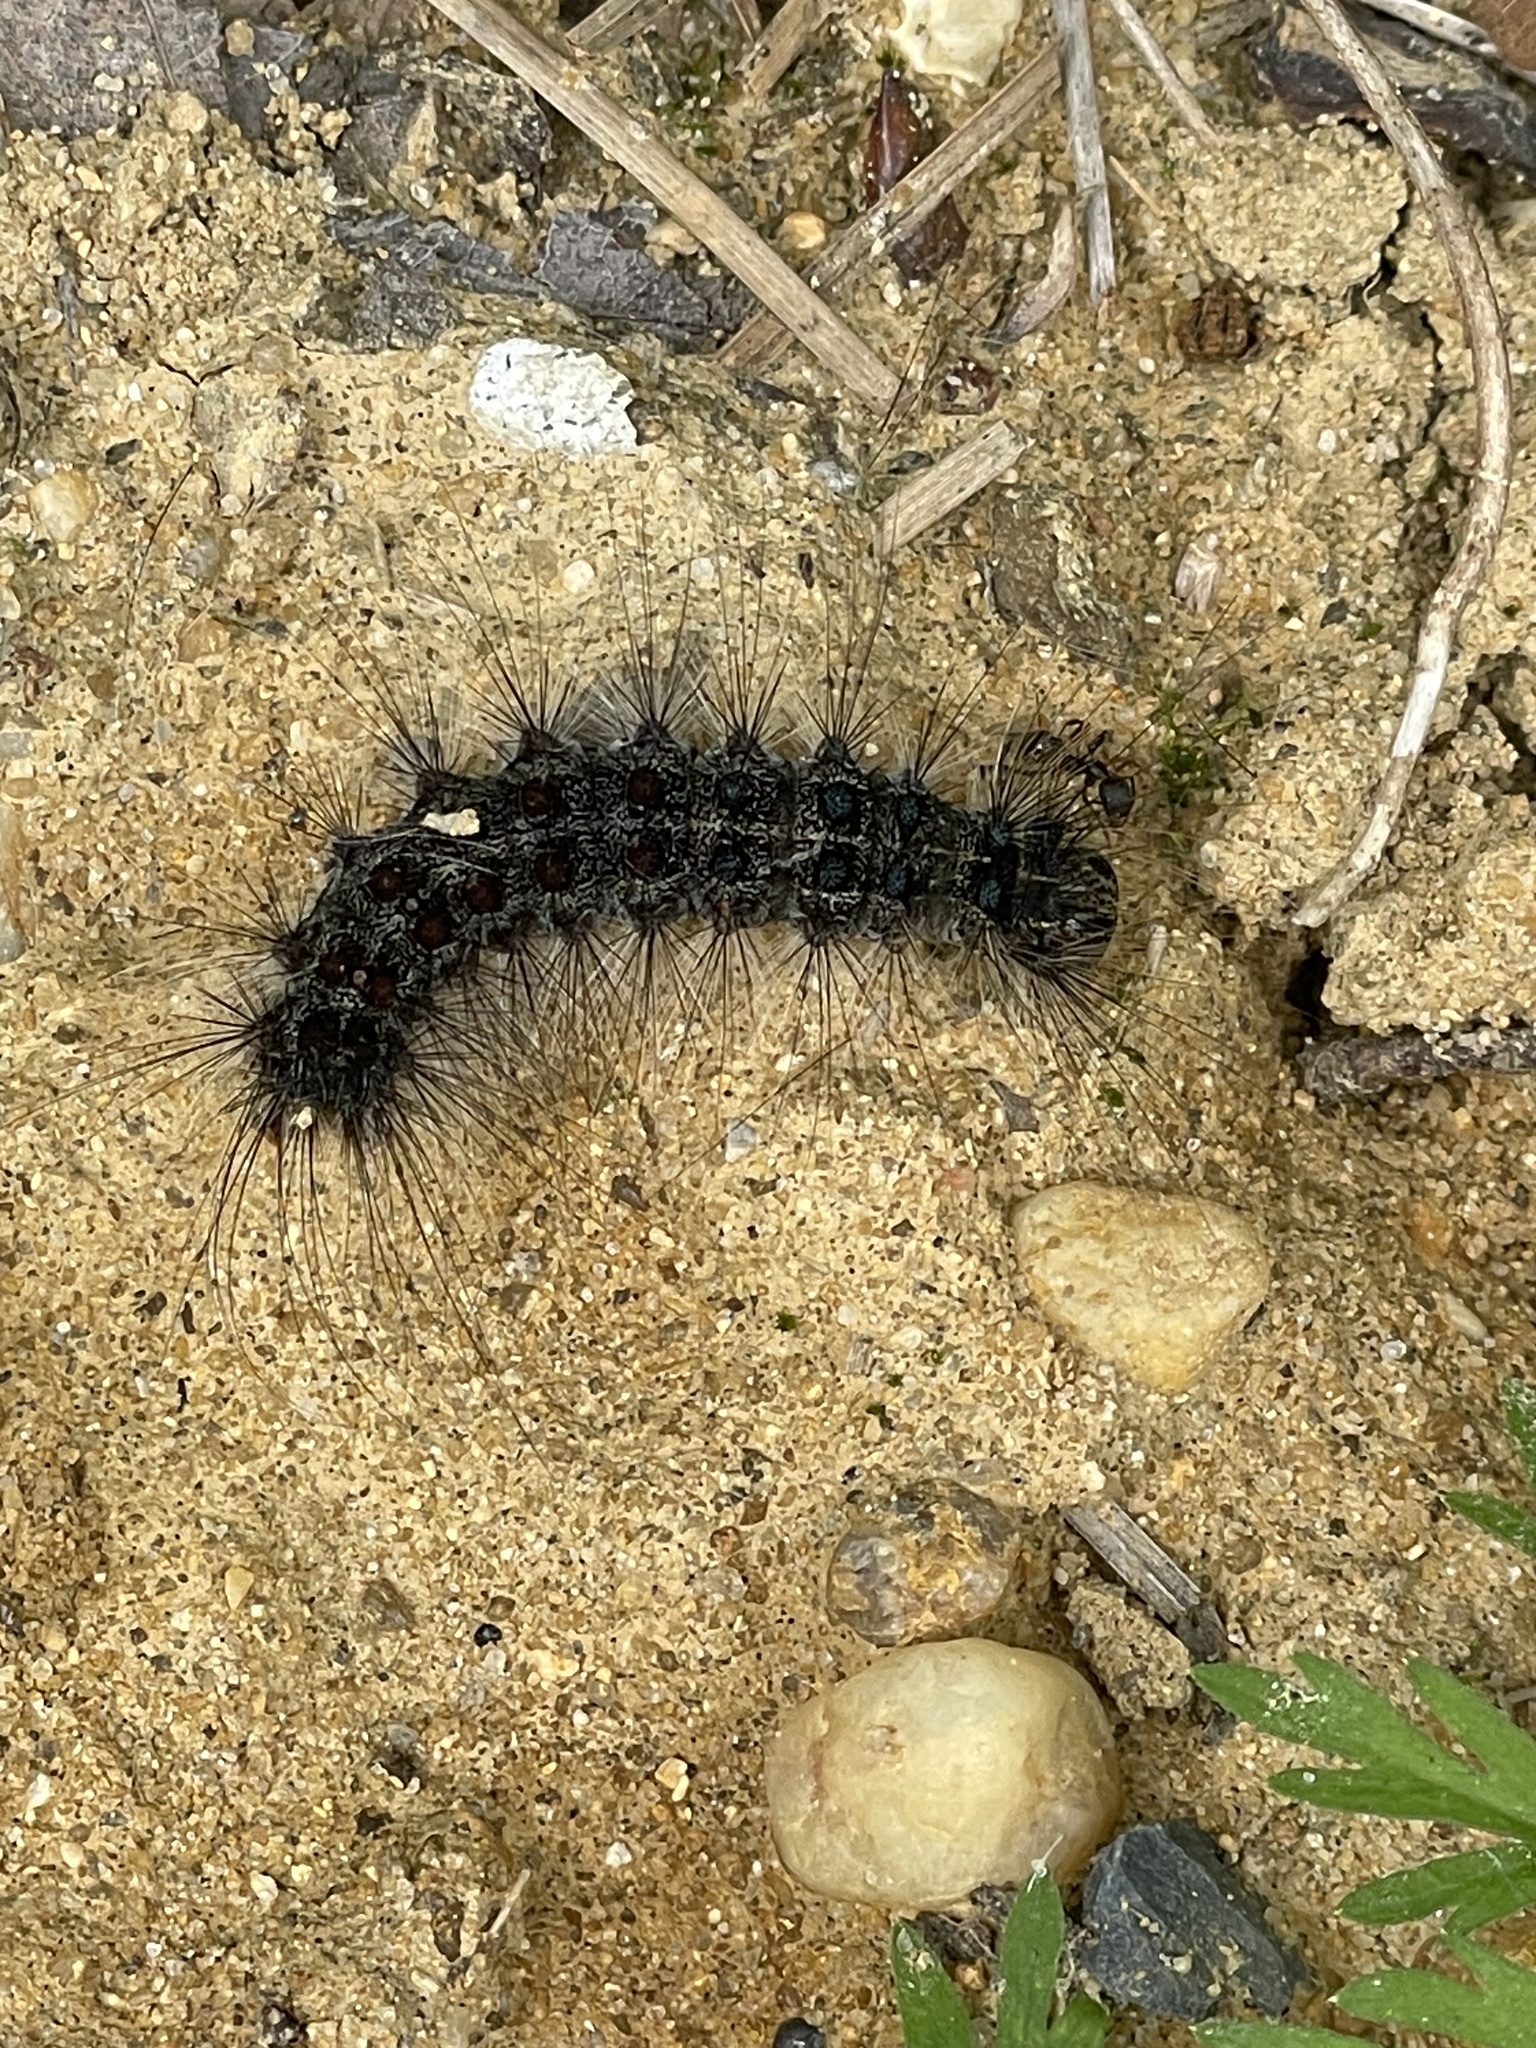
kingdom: Animalia
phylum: Arthropoda
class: Insecta
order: Lepidoptera
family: Erebidae
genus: Lymantria
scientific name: Lymantria dispar
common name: Gypsy moth
